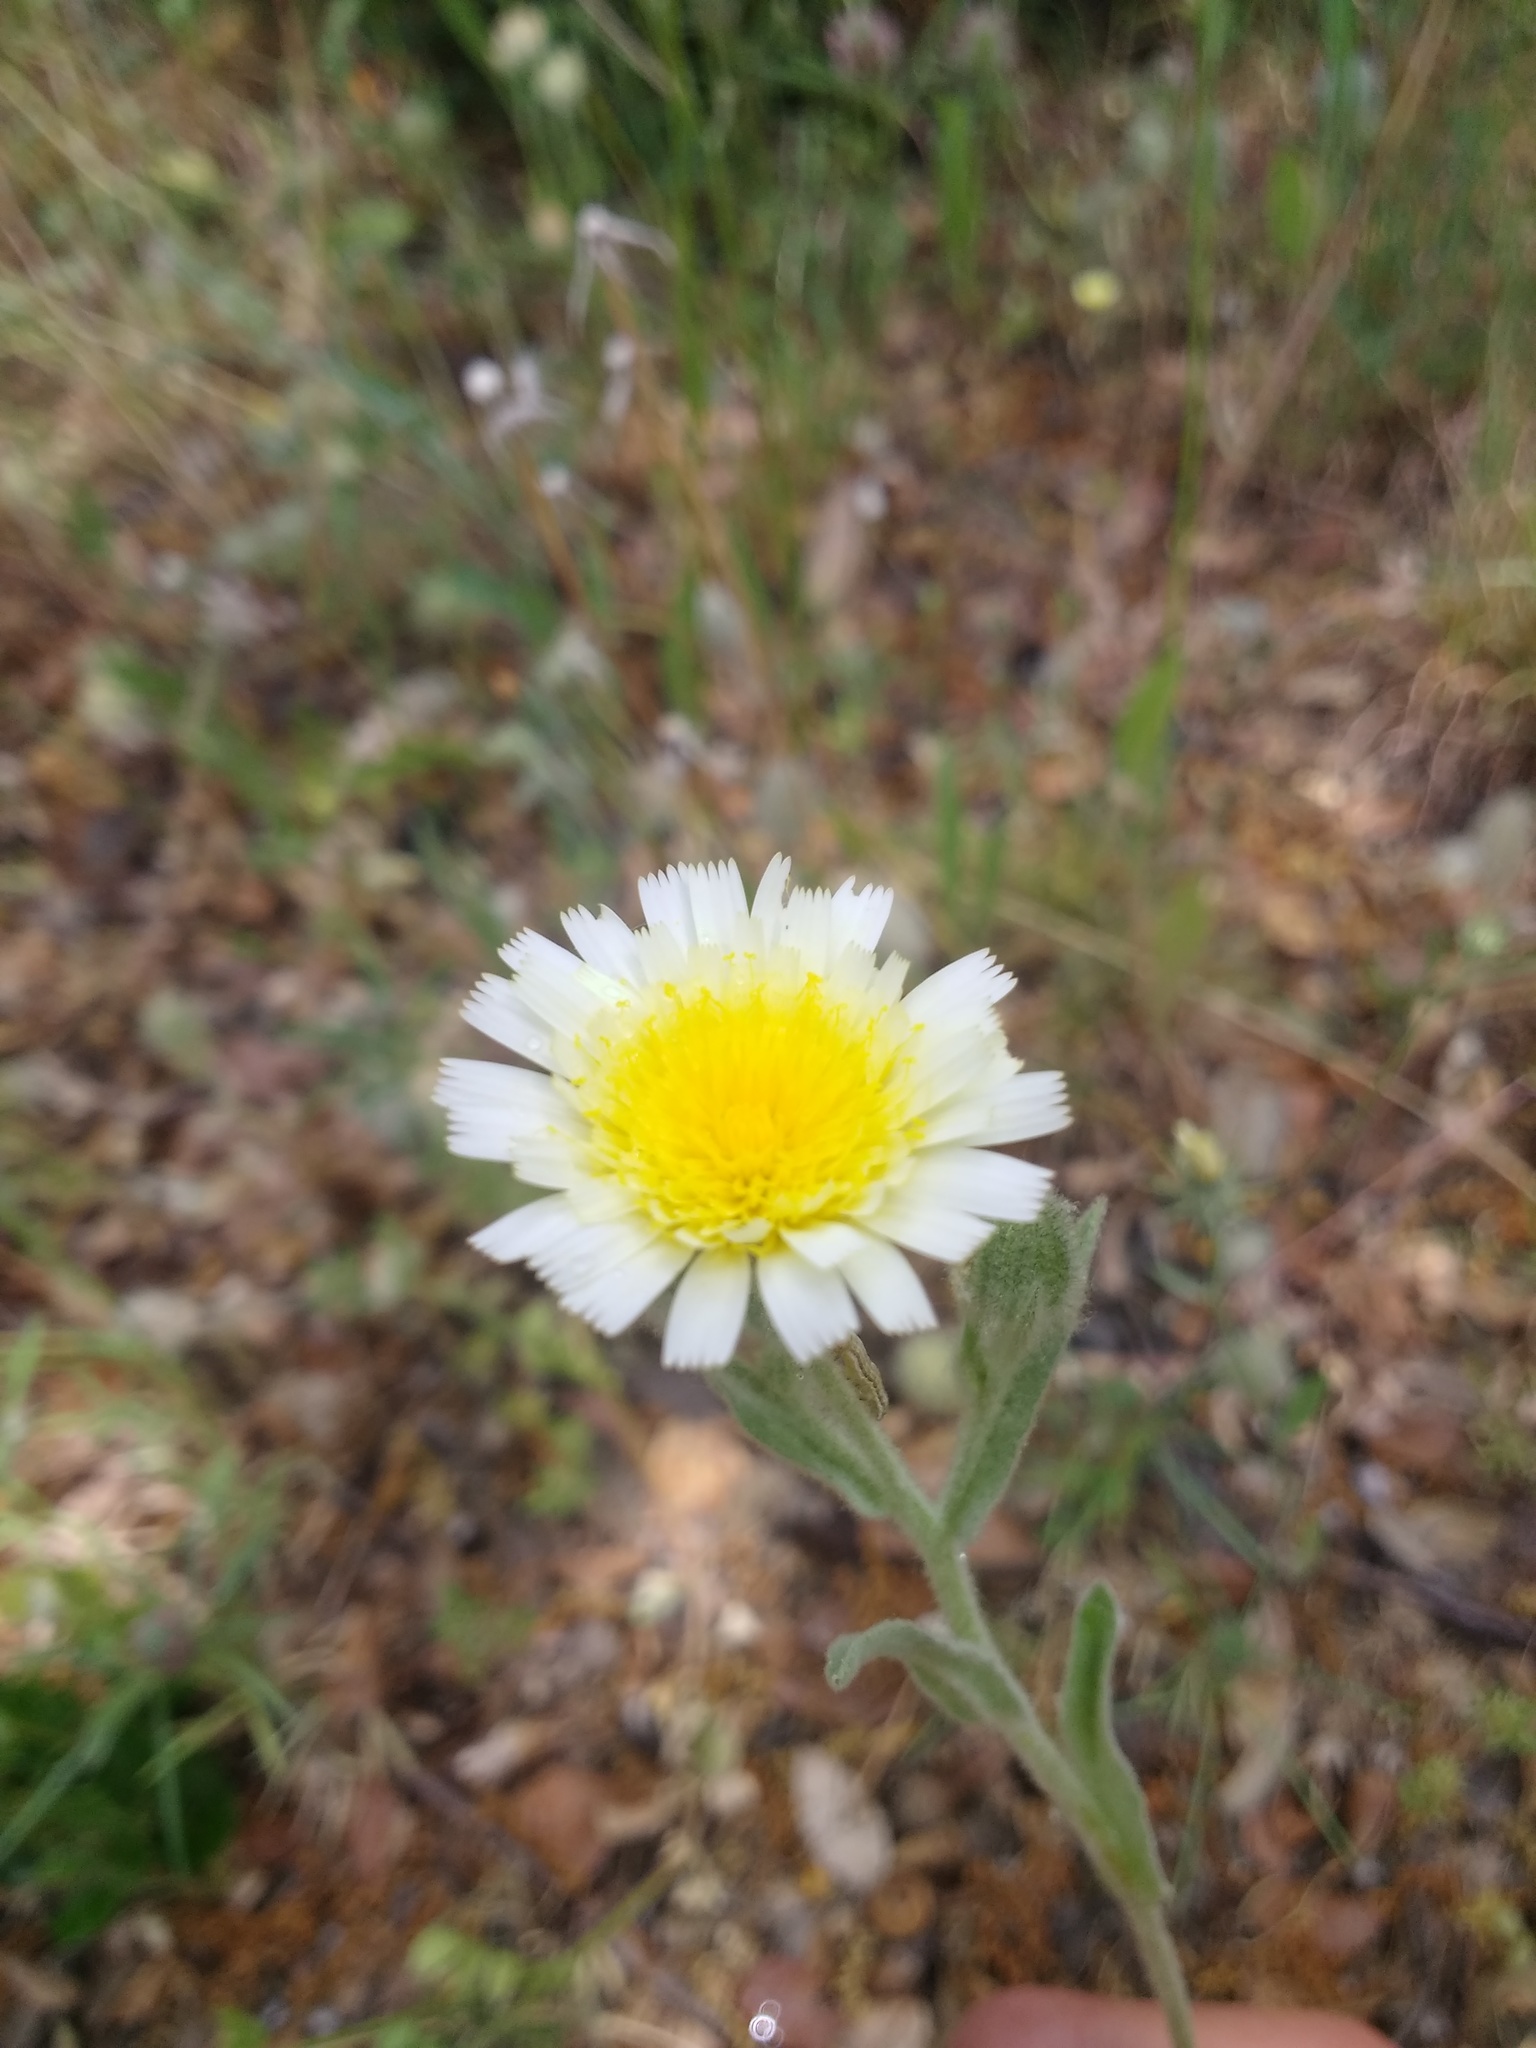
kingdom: Plantae
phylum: Tracheophyta
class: Magnoliopsida
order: Asterales
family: Asteraceae
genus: Andryala
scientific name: Andryala integrifolia
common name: Common andryala
